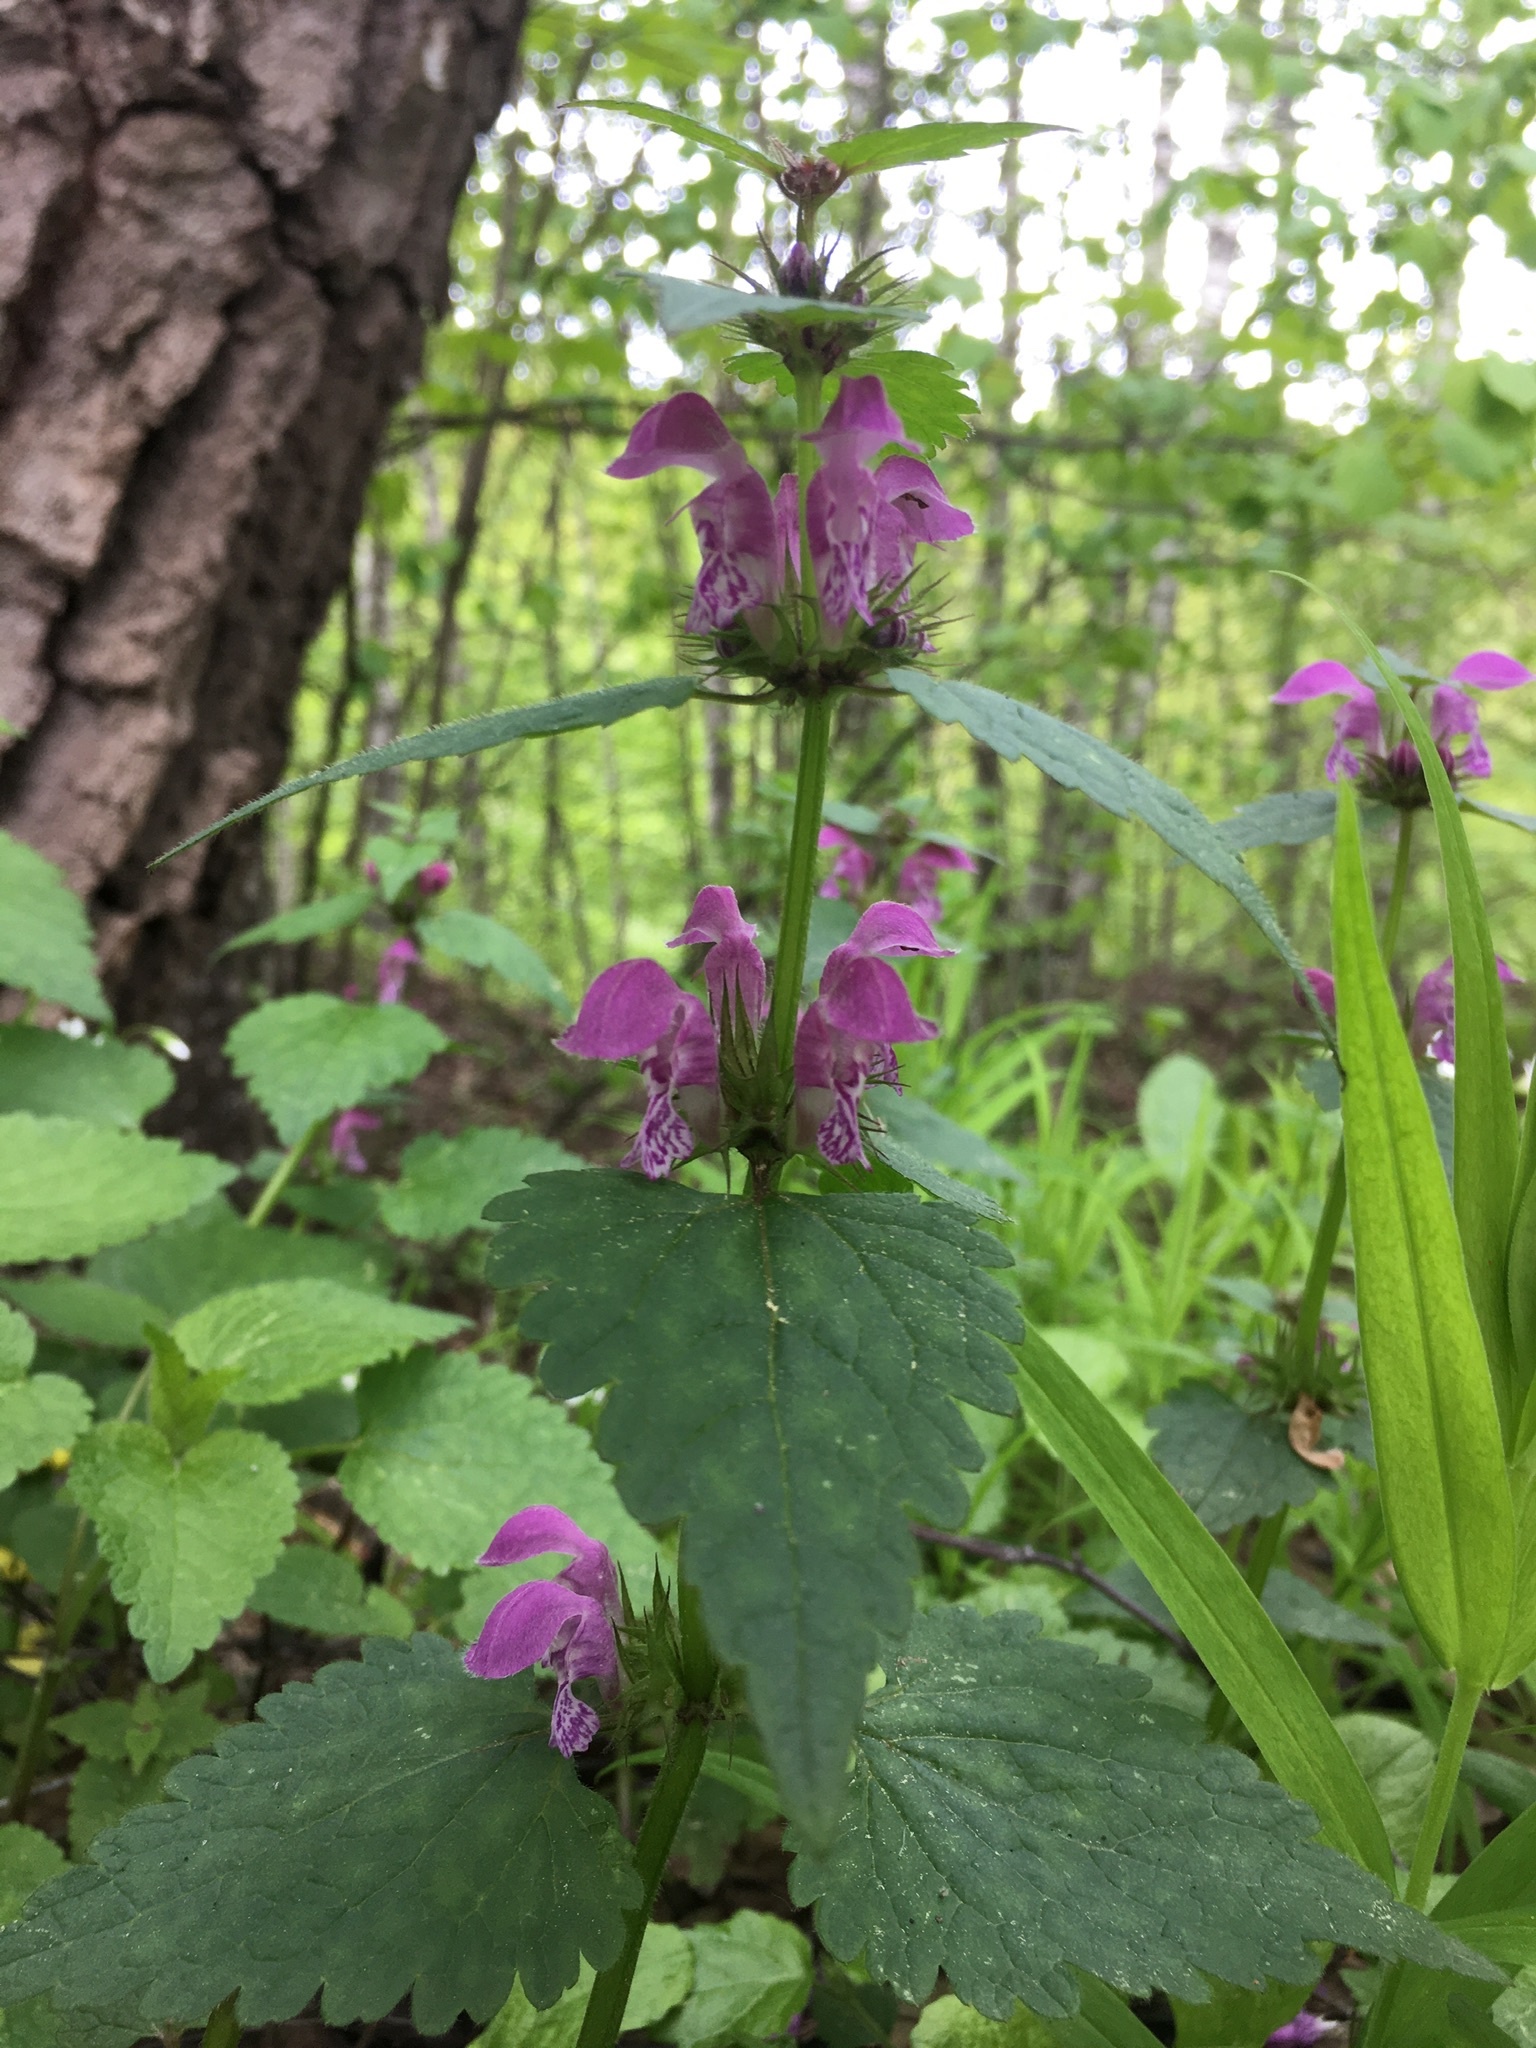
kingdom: Plantae
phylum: Tracheophyta
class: Magnoliopsida
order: Lamiales
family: Lamiaceae
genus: Lamium
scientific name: Lamium maculatum
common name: Spotted dead-nettle
